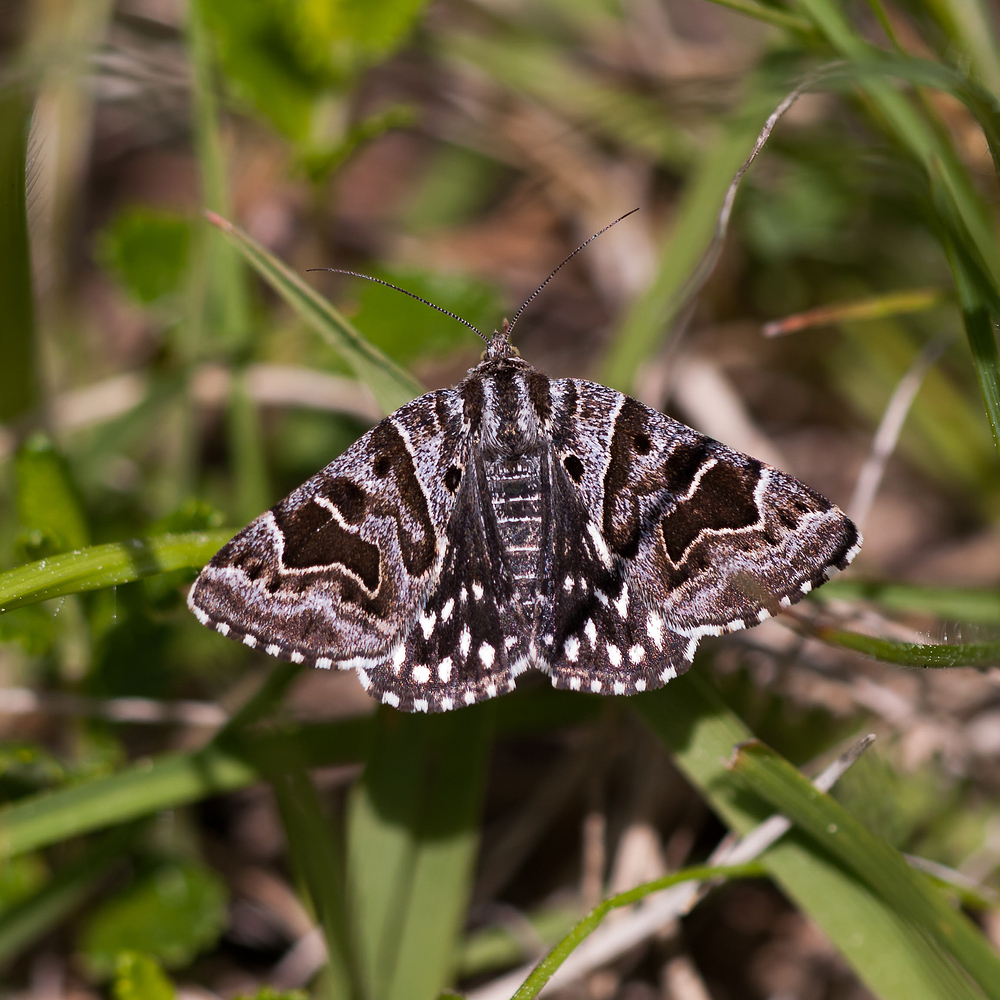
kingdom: Animalia
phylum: Arthropoda
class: Insecta
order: Lepidoptera
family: Erebidae
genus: Callistege
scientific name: Callistege mi
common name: Mother shipton
